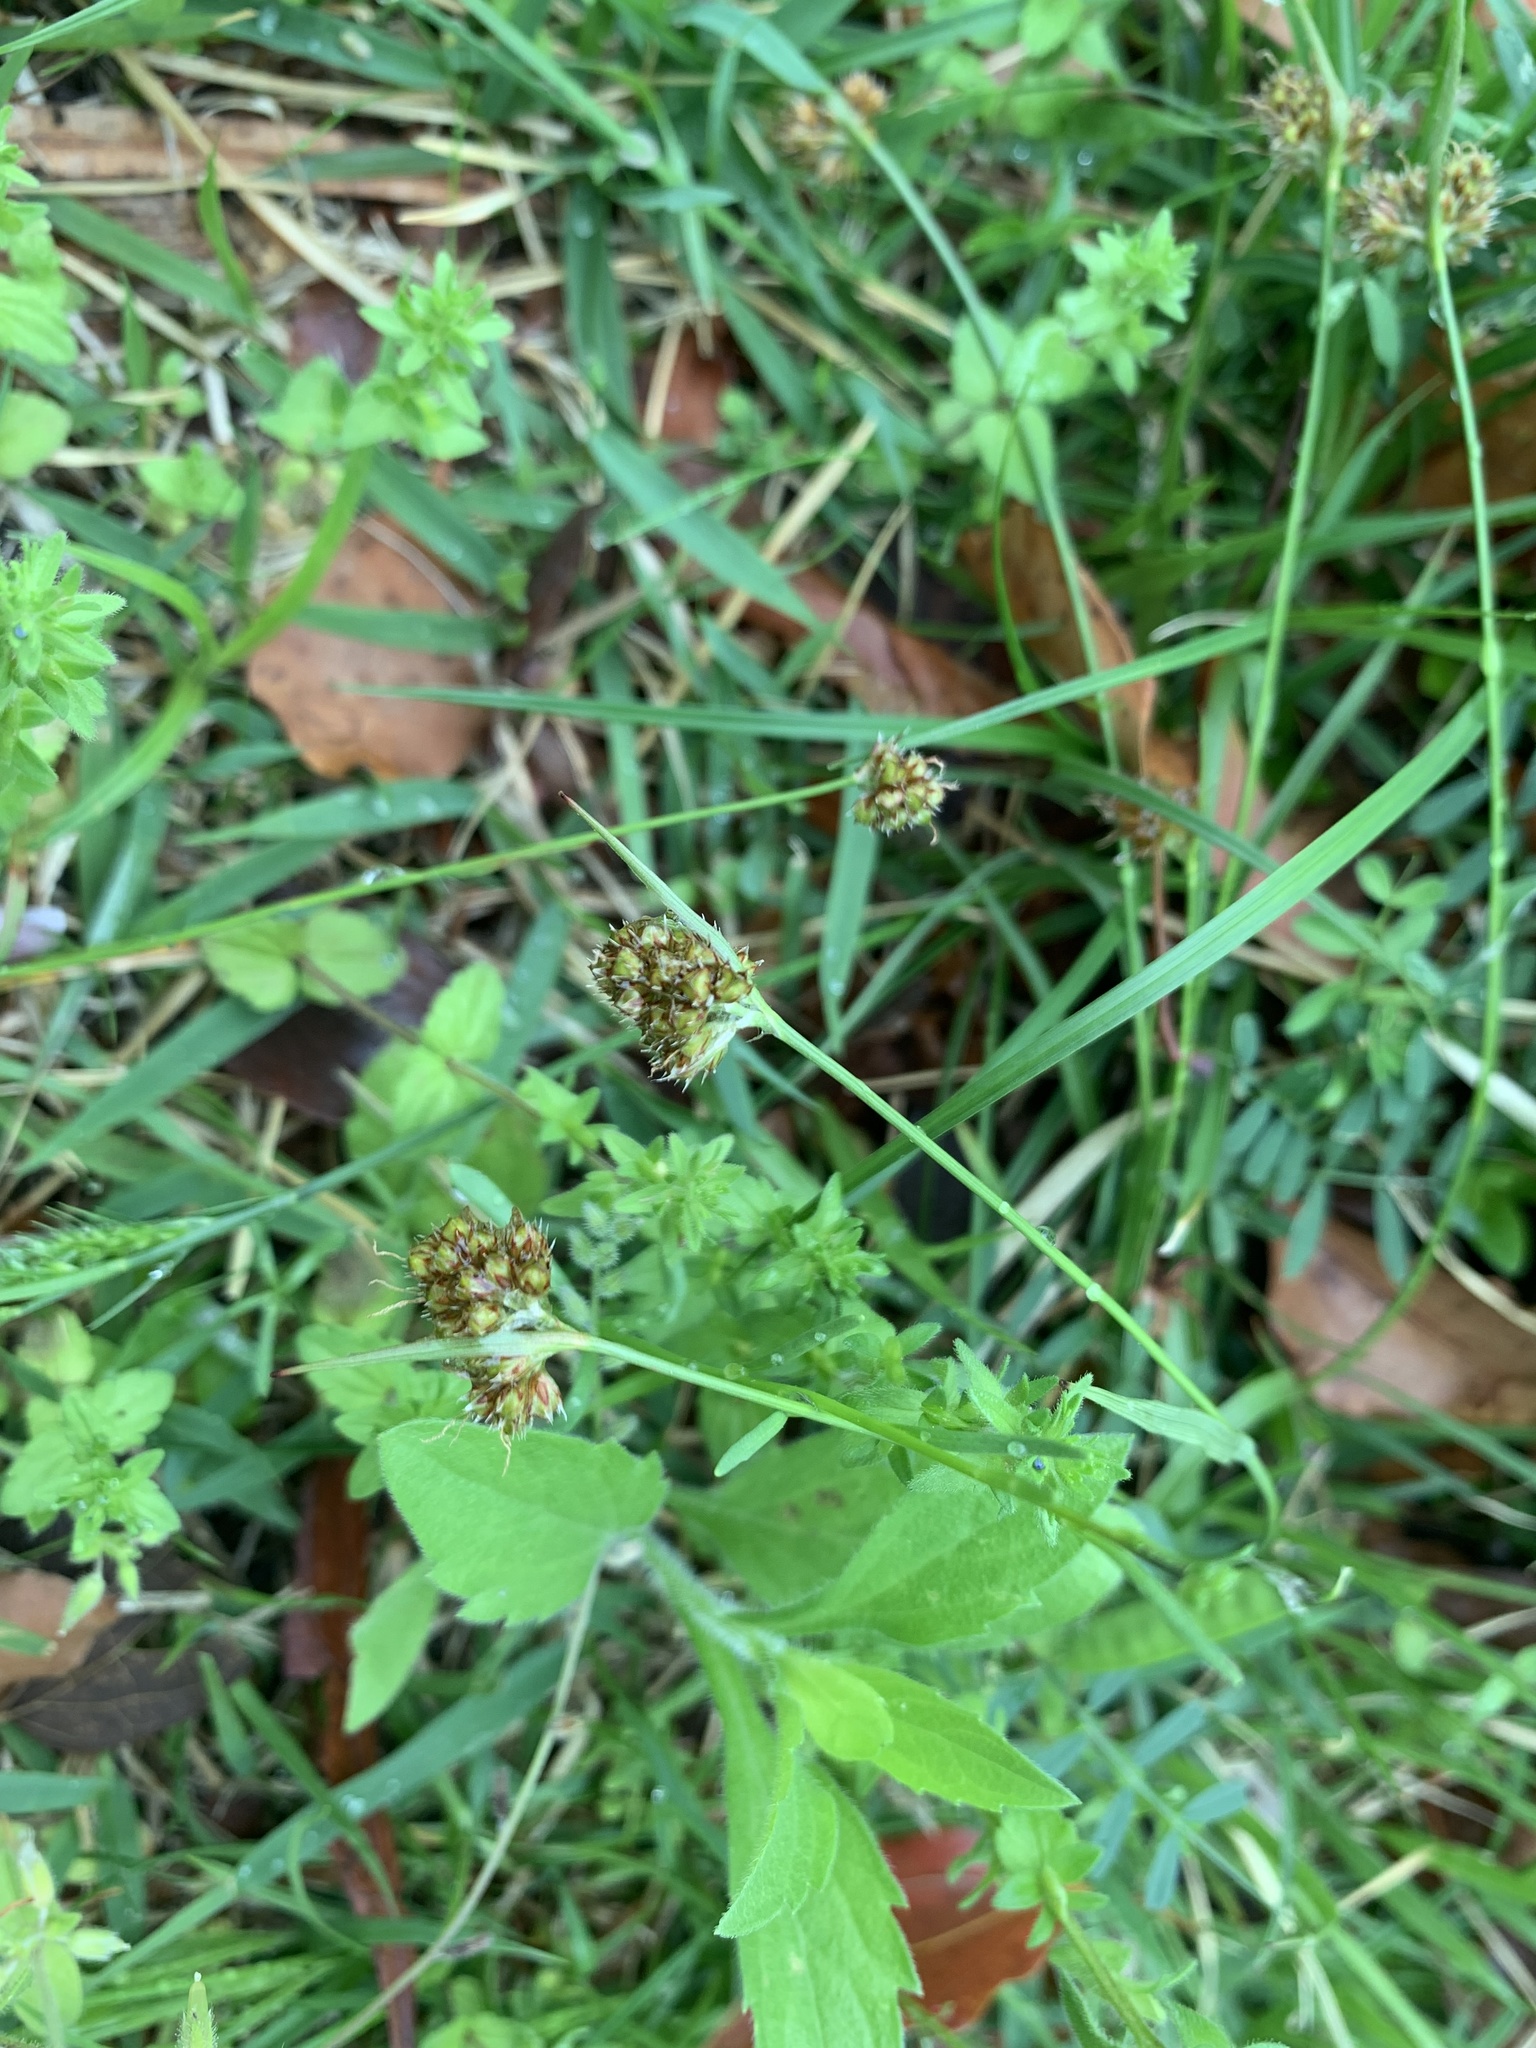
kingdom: Plantae
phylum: Tracheophyta
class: Liliopsida
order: Poales
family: Juncaceae
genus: Luzula
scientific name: Luzula capitata
